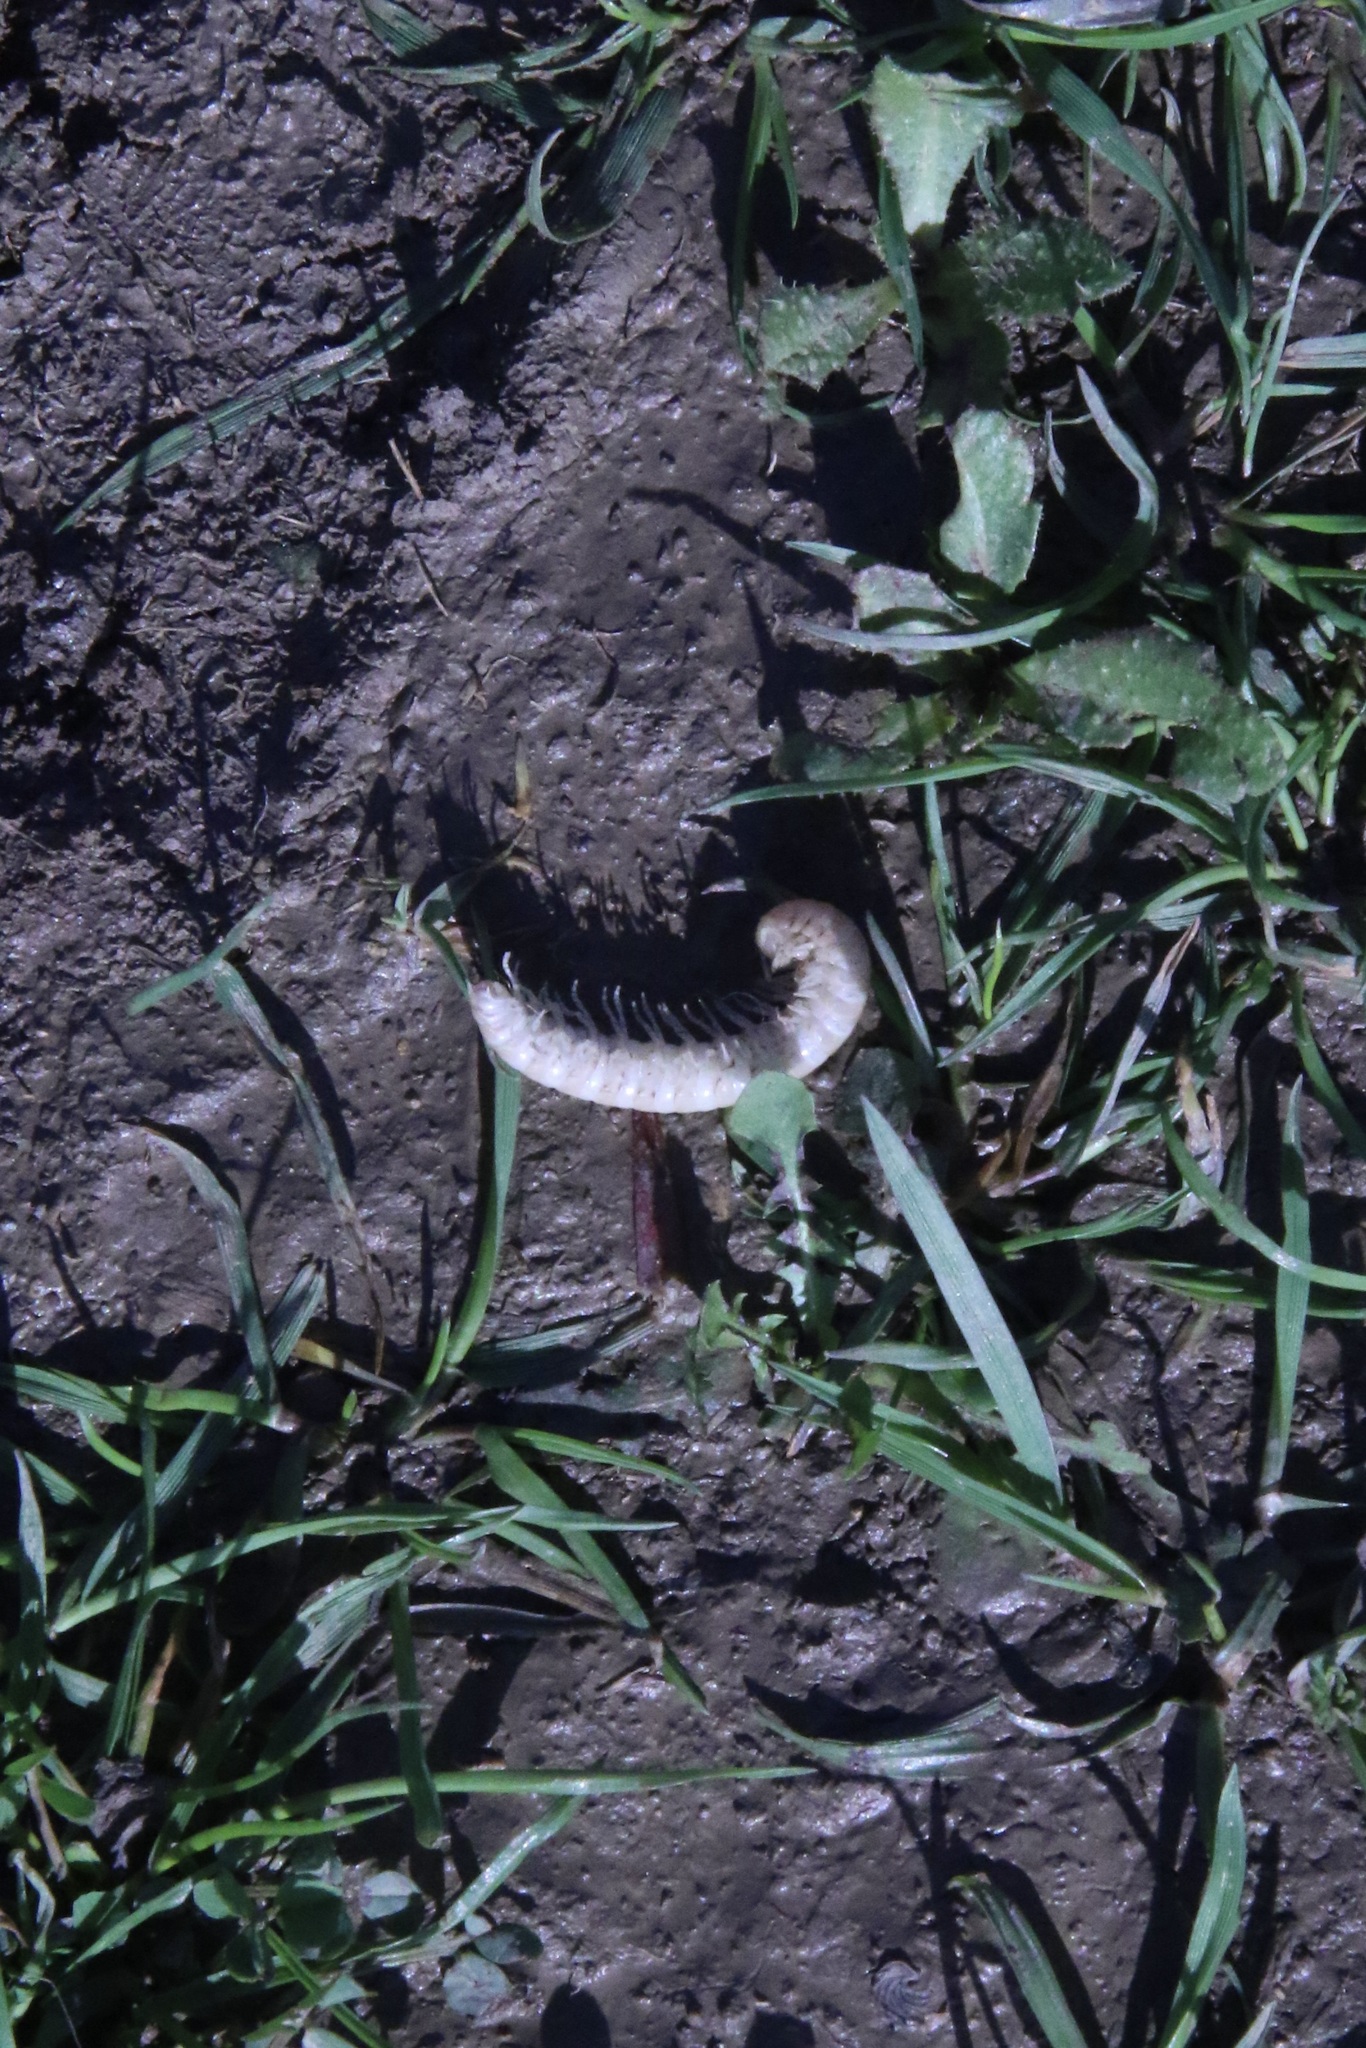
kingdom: Animalia
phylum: Arthropoda
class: Diplopoda
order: Polydesmida
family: Xystodesmidae
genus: Xystocheir
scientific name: Xystocheir dissecta
